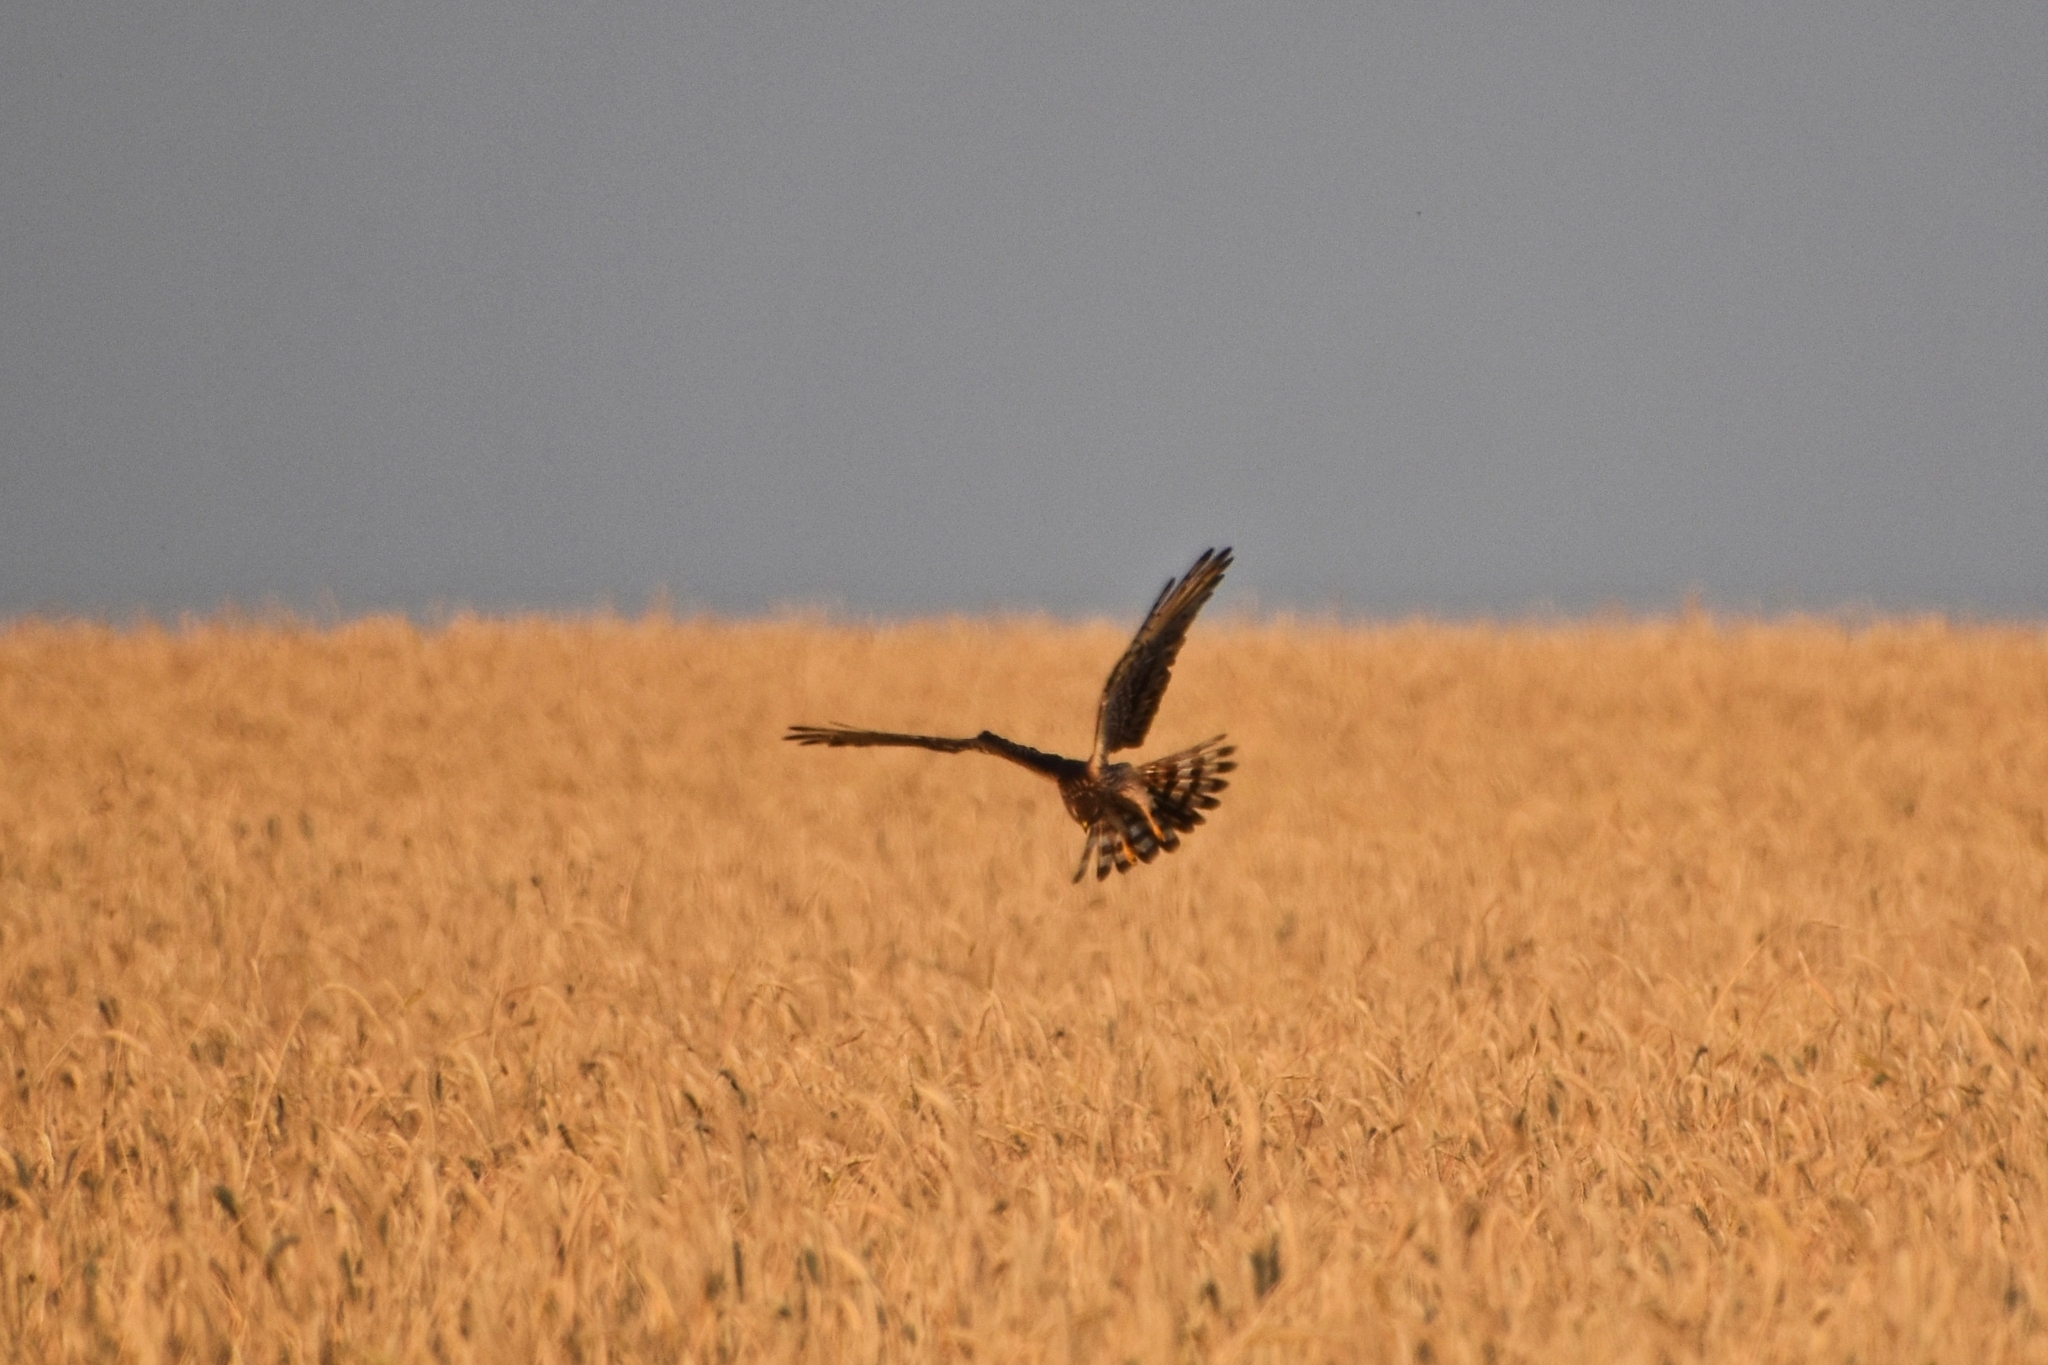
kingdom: Animalia
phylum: Chordata
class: Aves
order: Accipitriformes
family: Accipitridae
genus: Circus
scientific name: Circus pygargus
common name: Montagu's harrier
